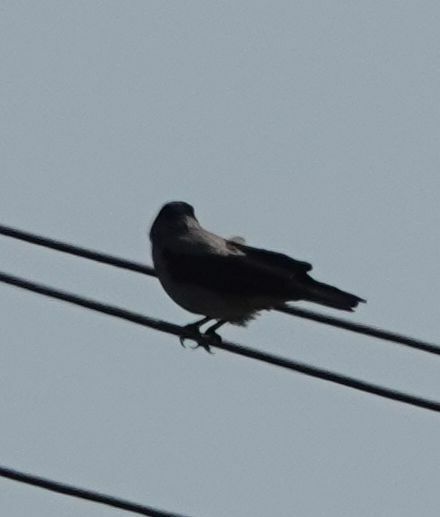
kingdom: Animalia
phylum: Chordata
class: Aves
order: Passeriformes
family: Corvidae
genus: Corvus
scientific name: Corvus cornix
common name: Hooded crow
